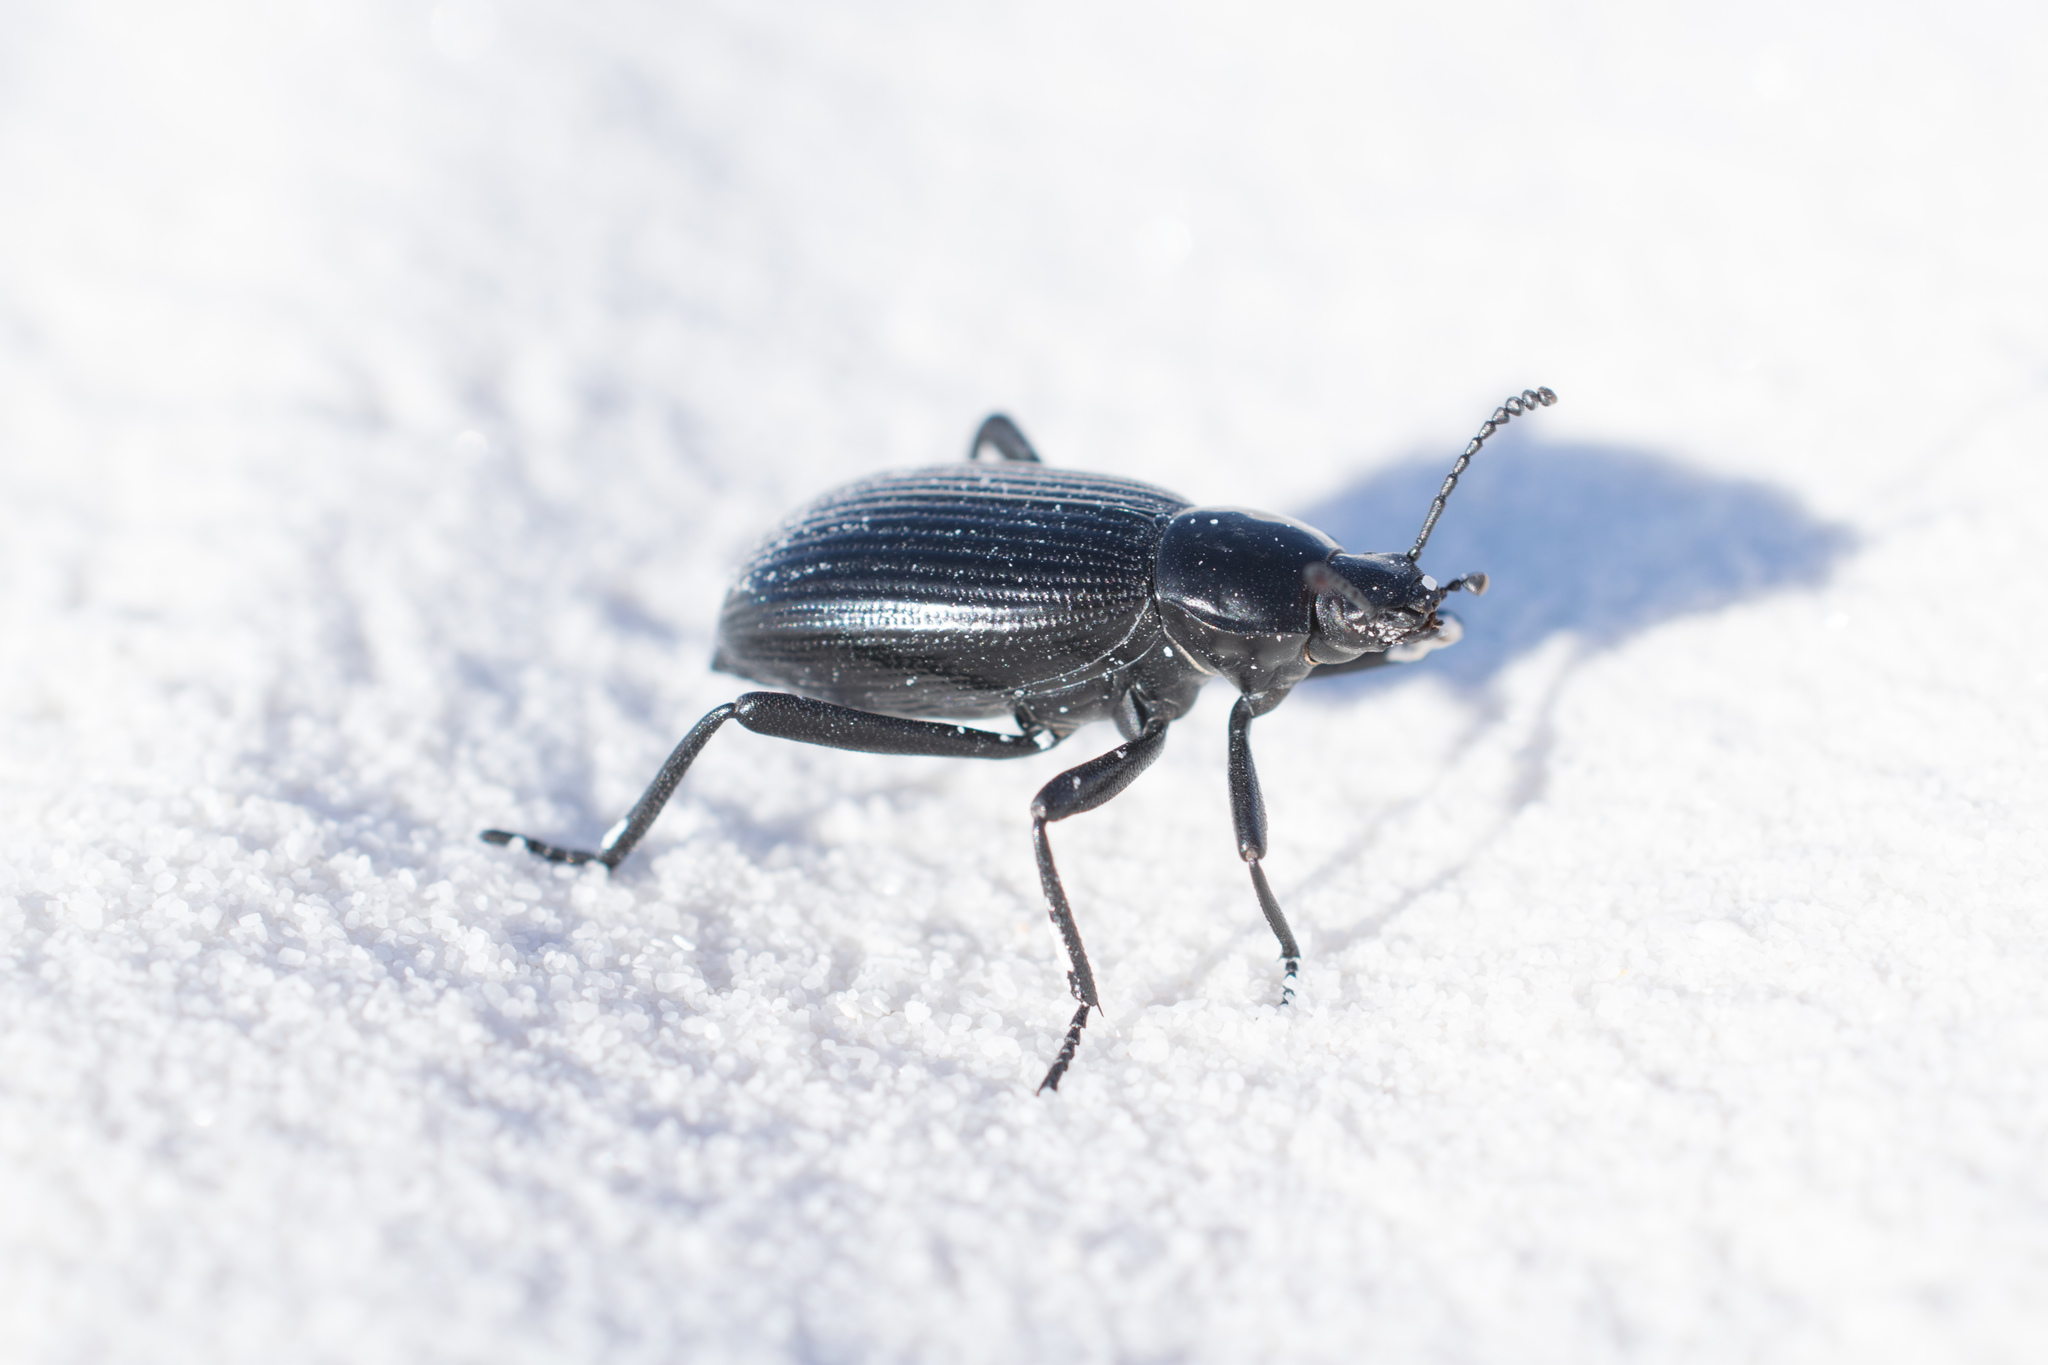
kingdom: Animalia
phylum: Arthropoda
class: Insecta
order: Coleoptera
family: Tenebrionidae
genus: Eleodes
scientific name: Eleodes hispilabris
